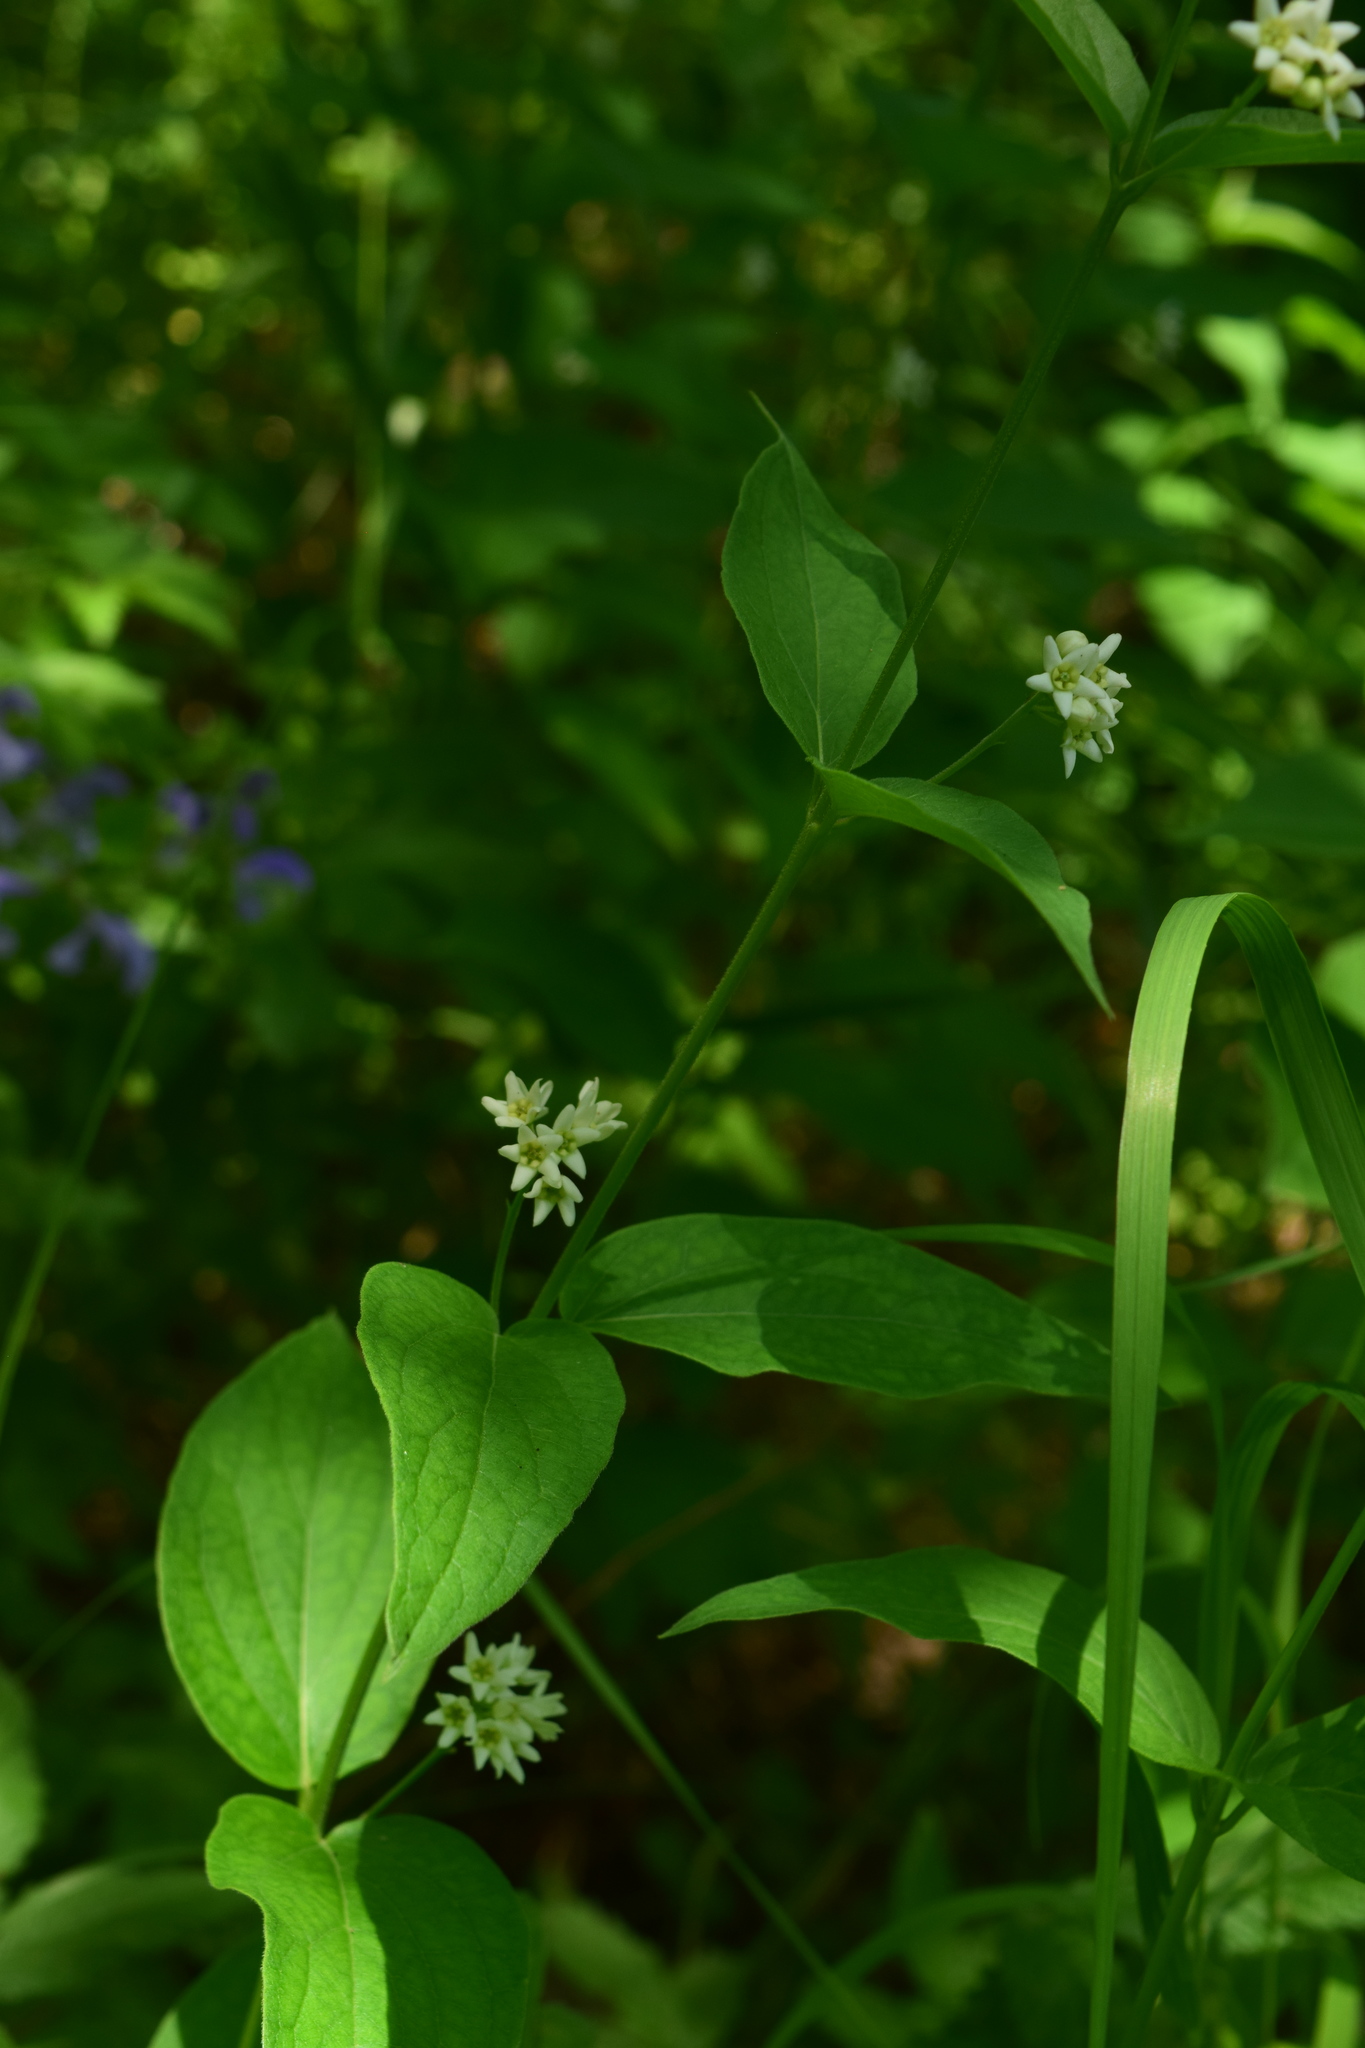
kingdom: Plantae
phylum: Tracheophyta
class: Magnoliopsida
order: Gentianales
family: Apocynaceae
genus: Vincetoxicum
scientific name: Vincetoxicum hirundinaria
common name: White swallowwort
